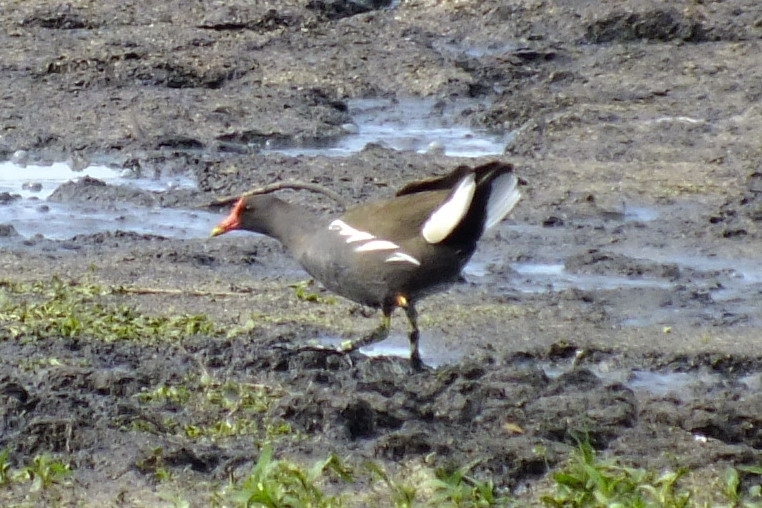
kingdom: Animalia
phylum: Chordata
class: Aves
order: Gruiformes
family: Rallidae
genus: Gallinula
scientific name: Gallinula chloropus
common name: Common moorhen
